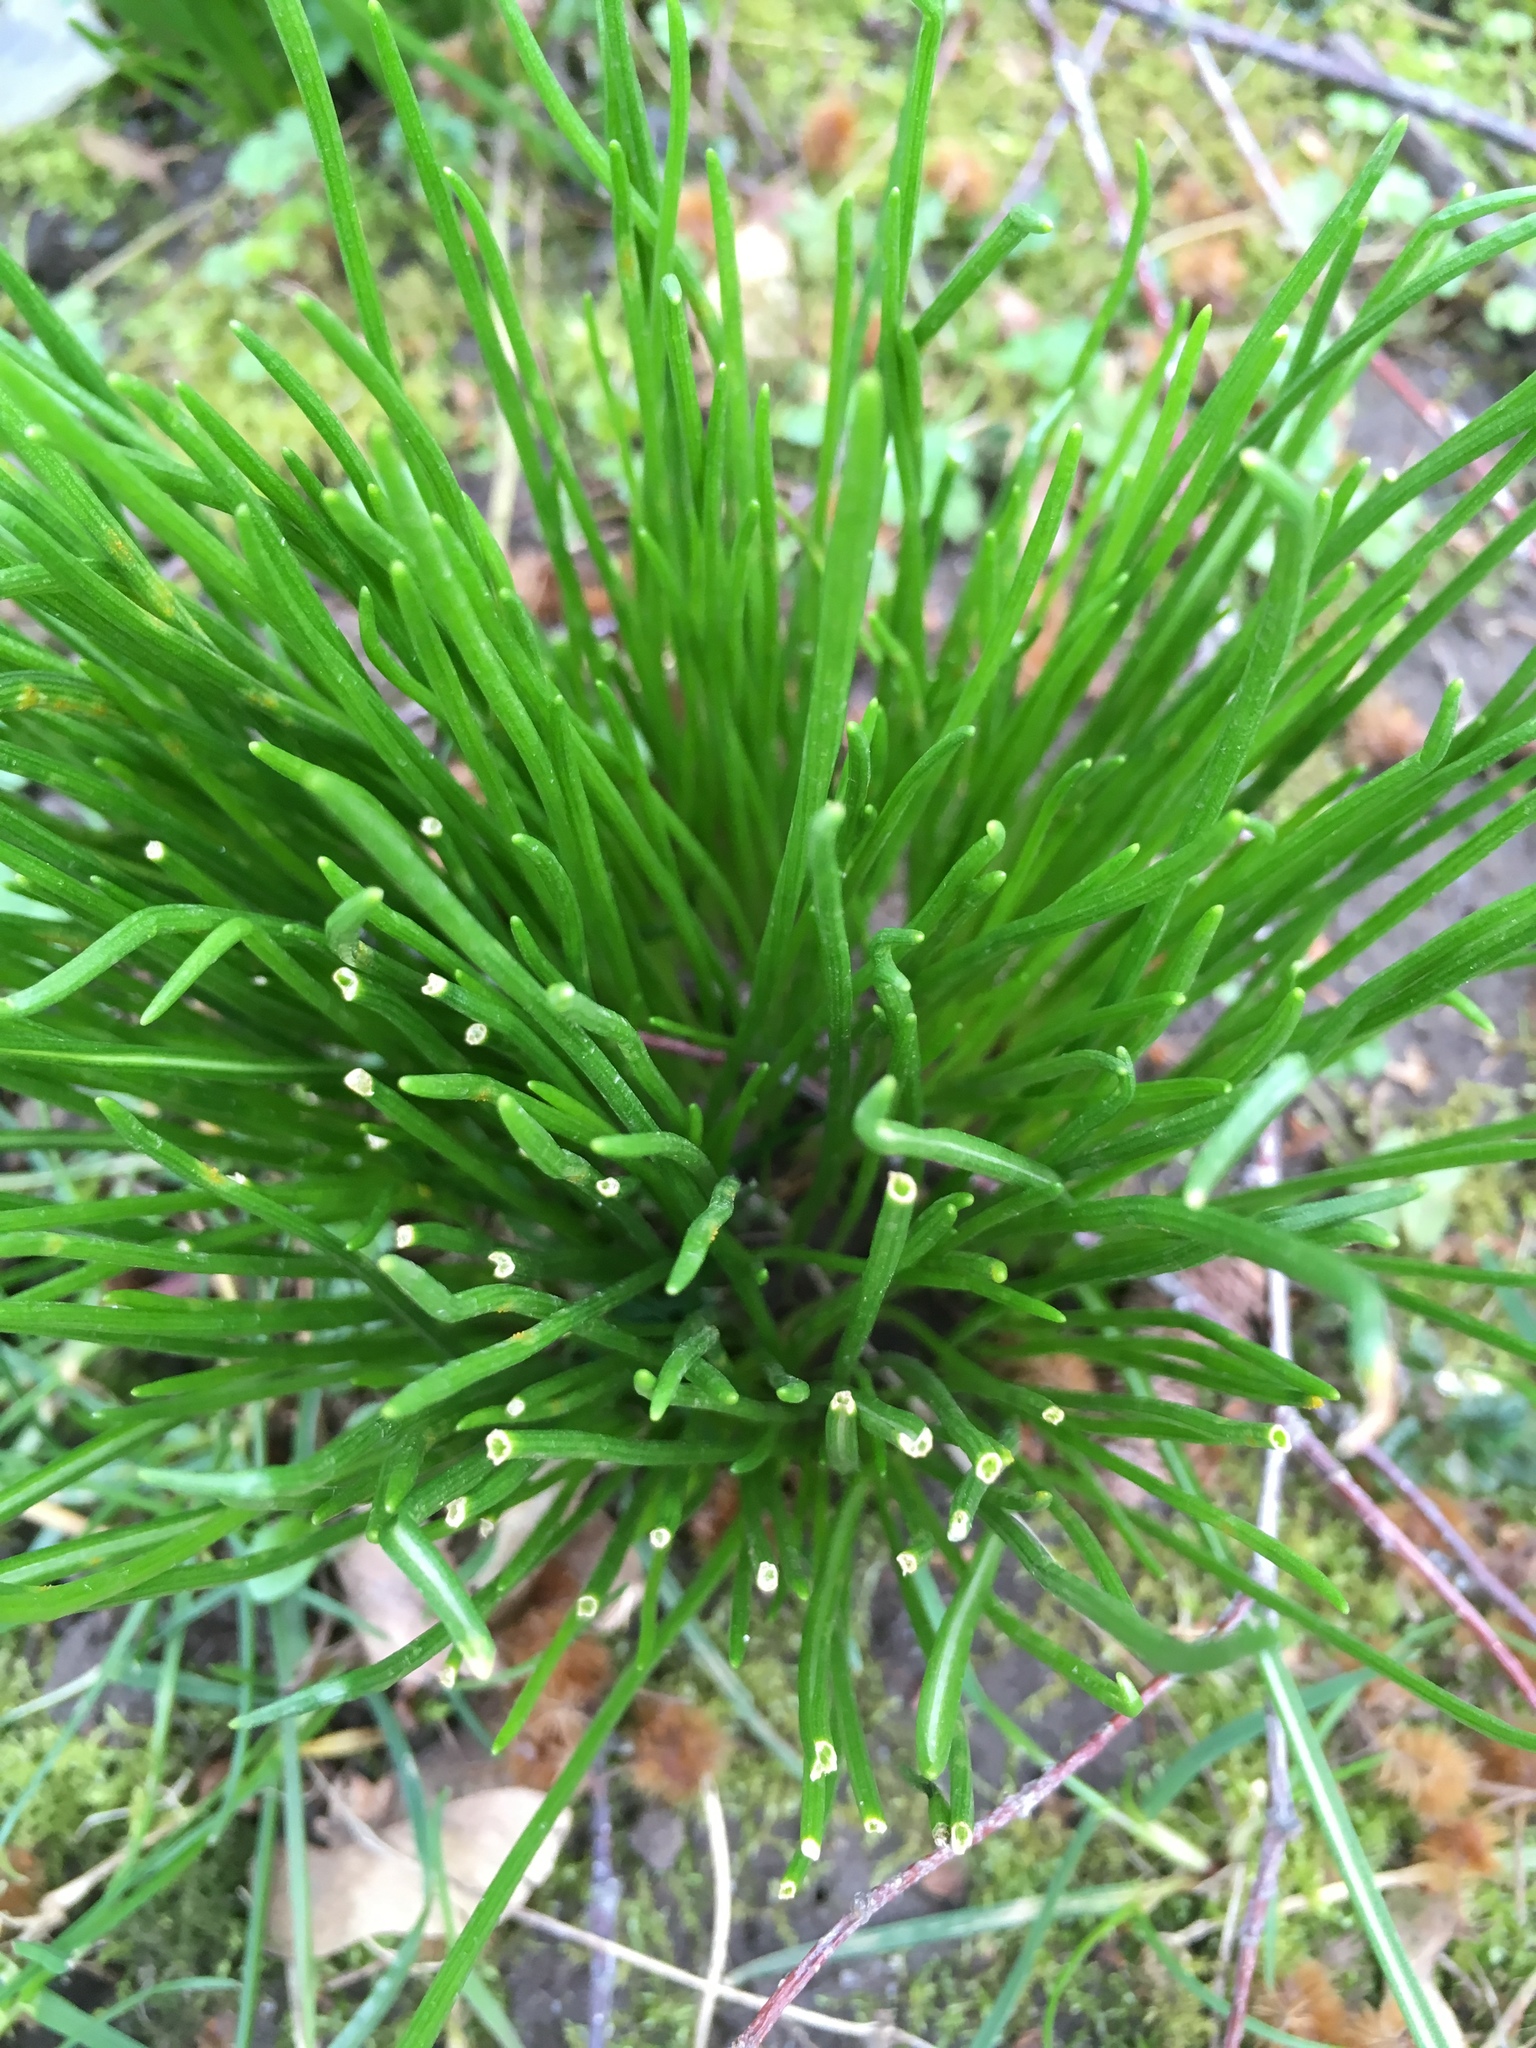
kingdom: Plantae
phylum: Tracheophyta
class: Liliopsida
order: Asparagales
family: Amaryllidaceae
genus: Allium
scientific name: Allium schoenoprasum
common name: Chives
